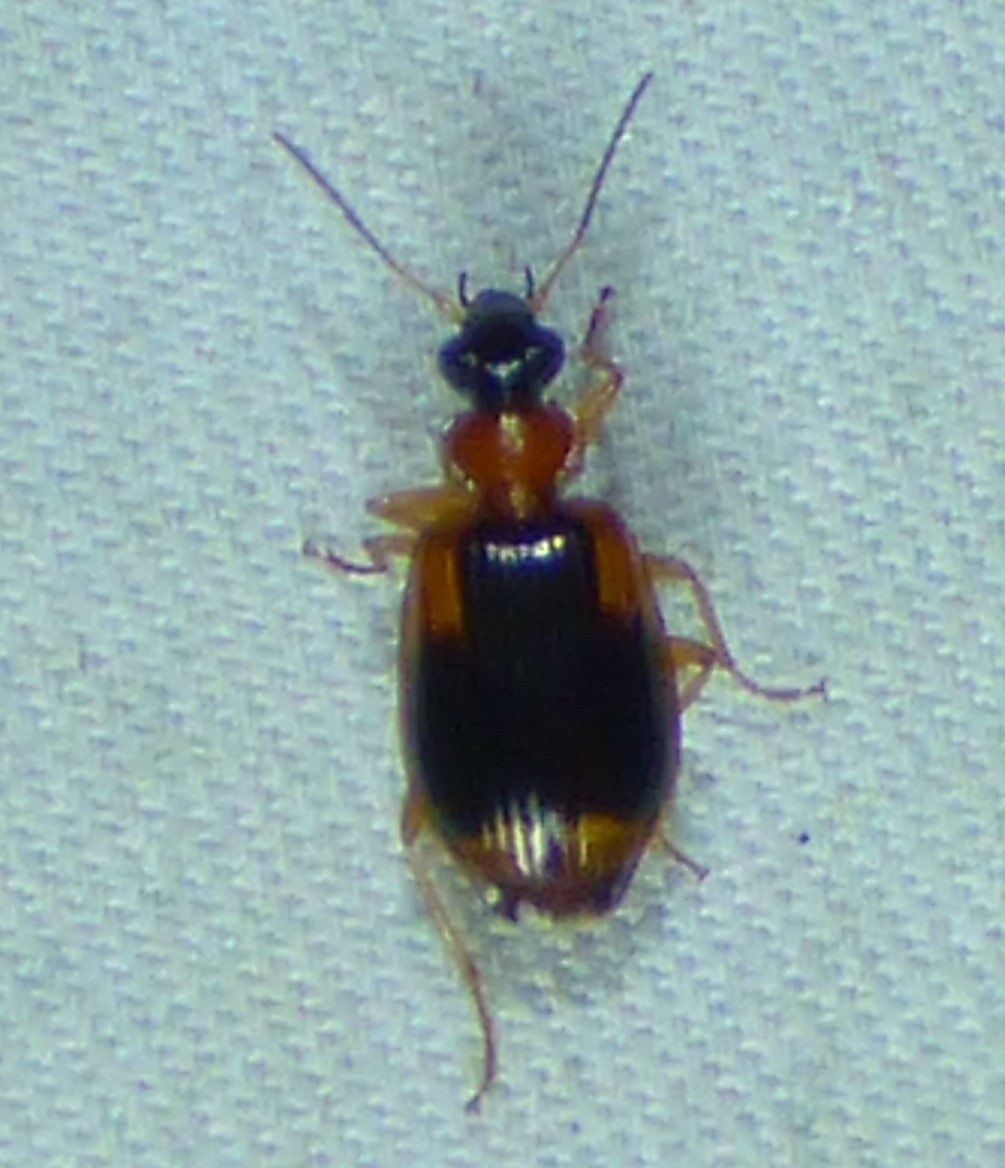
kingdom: Animalia
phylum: Arthropoda
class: Insecta
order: Coleoptera
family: Carabidae
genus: Lebia
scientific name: Lebia analis
